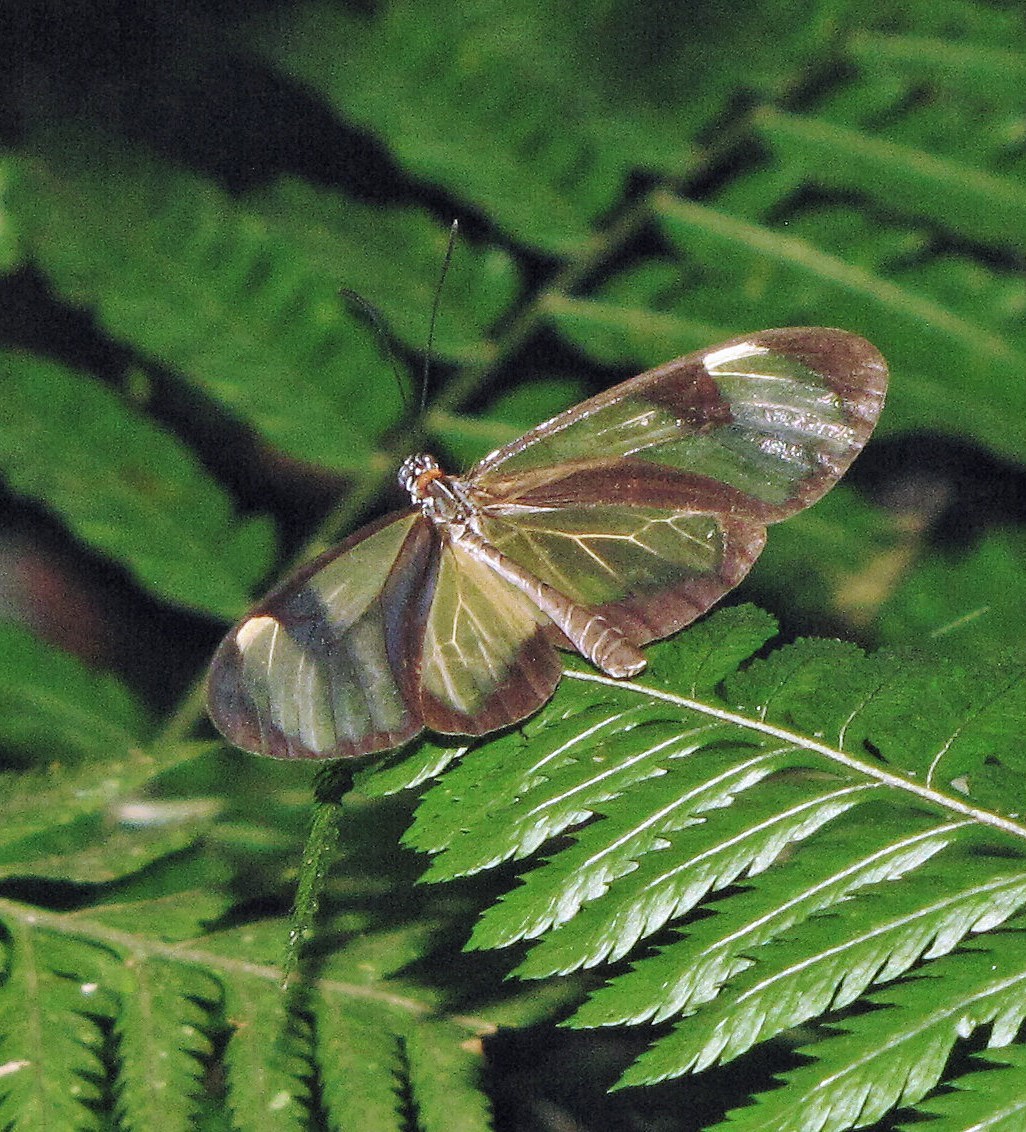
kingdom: Animalia
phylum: Arthropoda
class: Insecta
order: Lepidoptera
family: Nymphalidae
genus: Epityches
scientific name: Epityches eupompe
